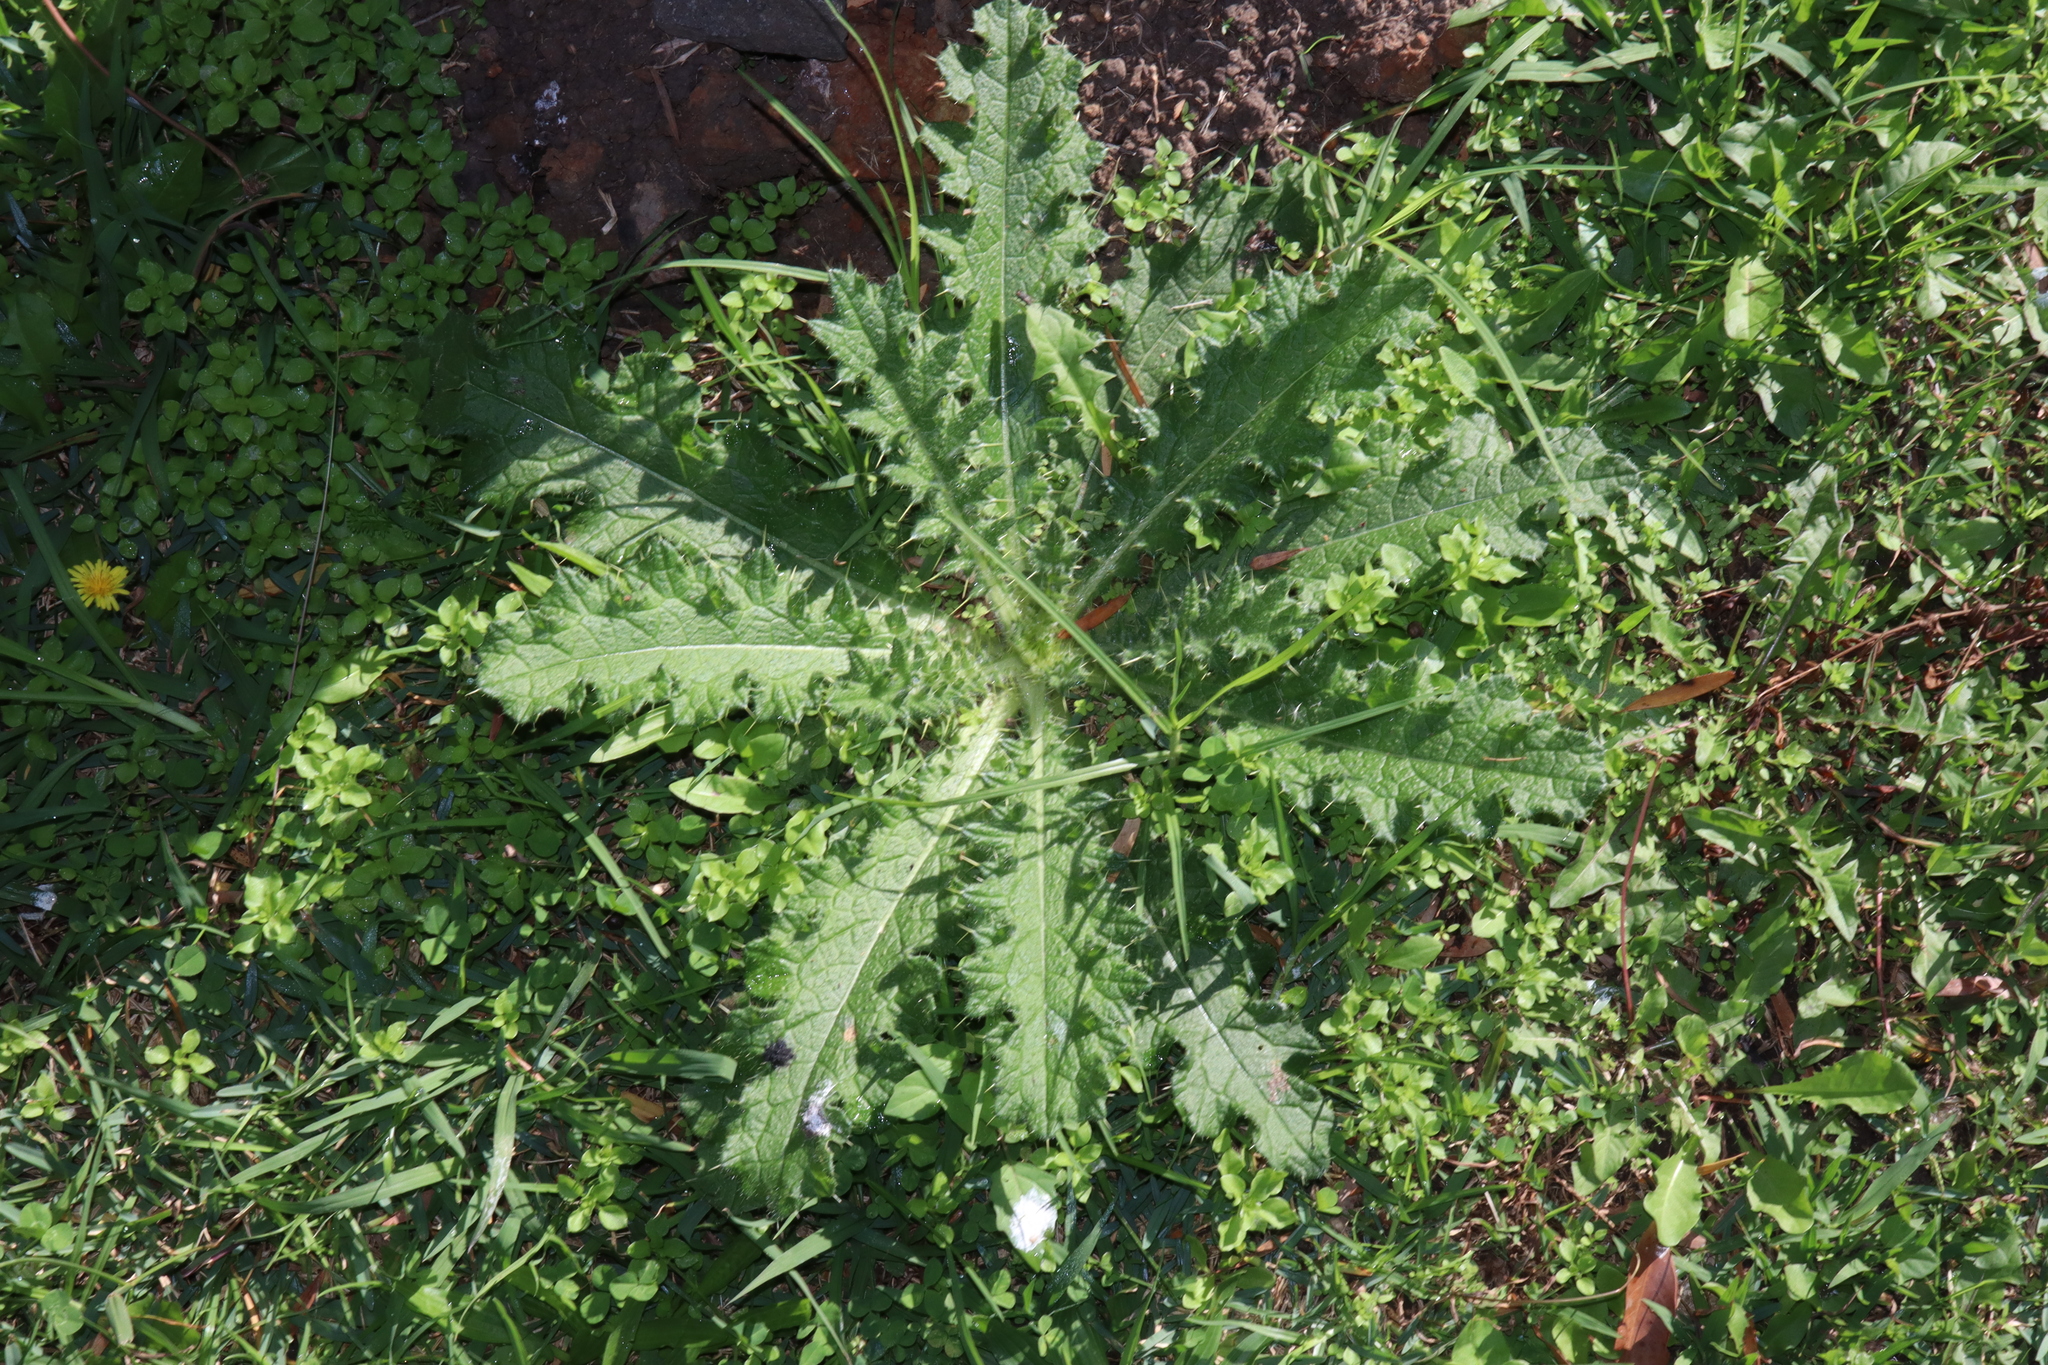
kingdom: Plantae
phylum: Tracheophyta
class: Magnoliopsida
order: Asterales
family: Asteraceae
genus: Cirsium
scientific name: Cirsium vulgare
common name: Bull thistle
